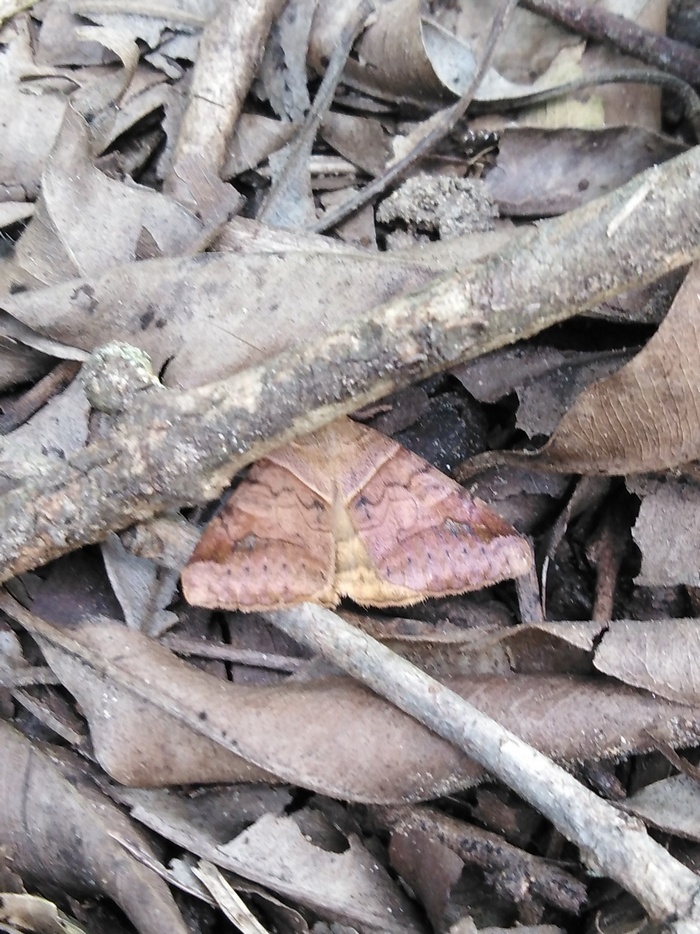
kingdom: Animalia
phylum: Arthropoda
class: Insecta
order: Lepidoptera
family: Erebidae
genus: Mocis
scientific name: Mocis undata
